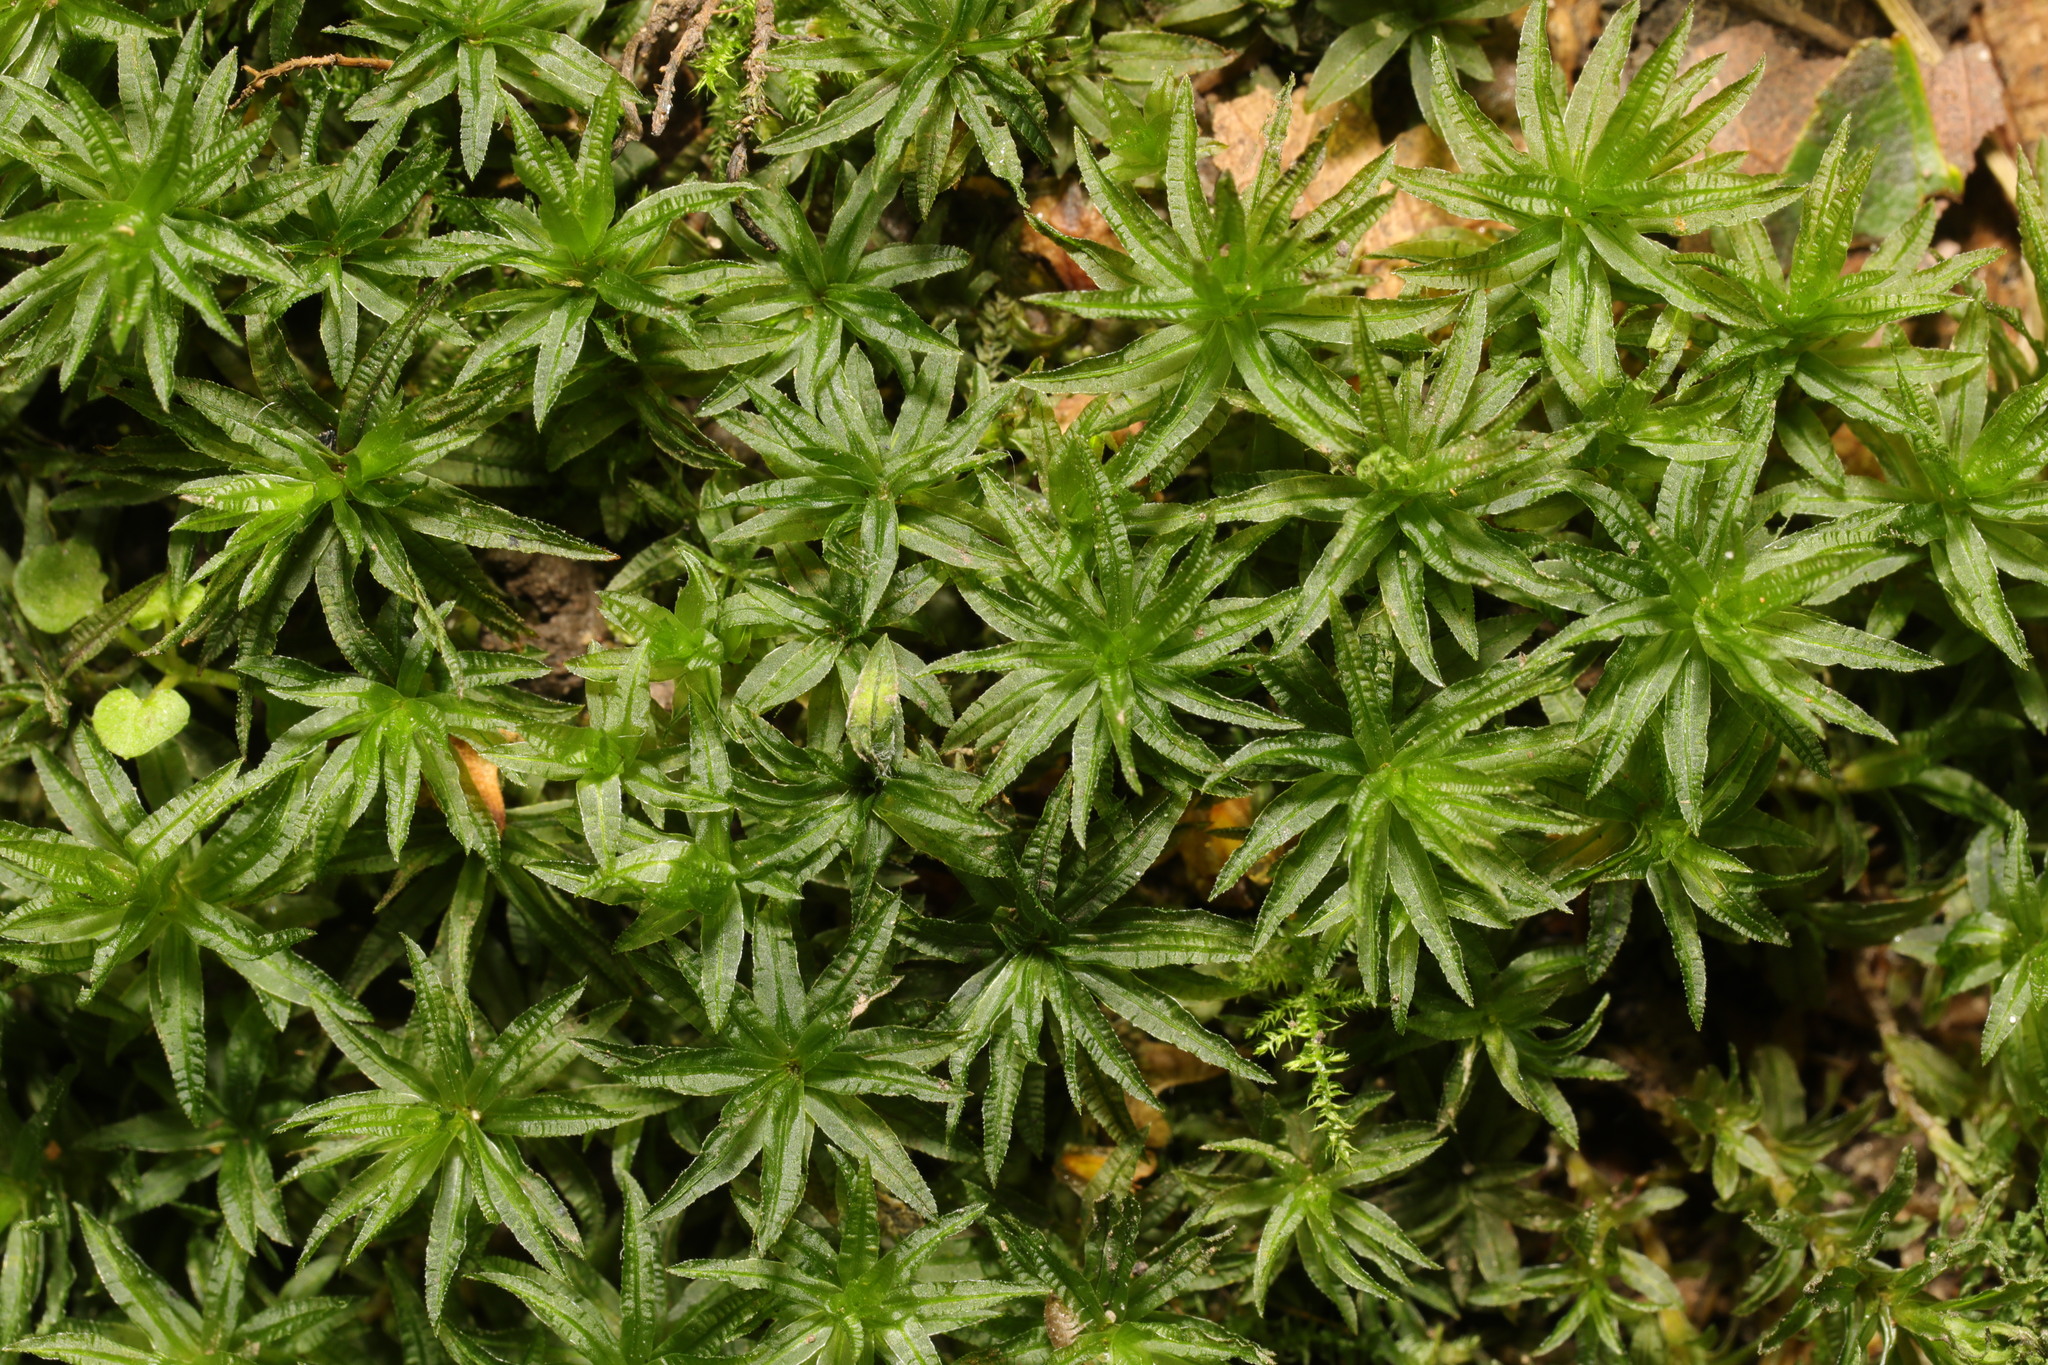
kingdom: Plantae
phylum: Bryophyta
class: Polytrichopsida
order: Polytrichales
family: Polytrichaceae
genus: Atrichum
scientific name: Atrichum undulatum
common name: Common smoothcap
